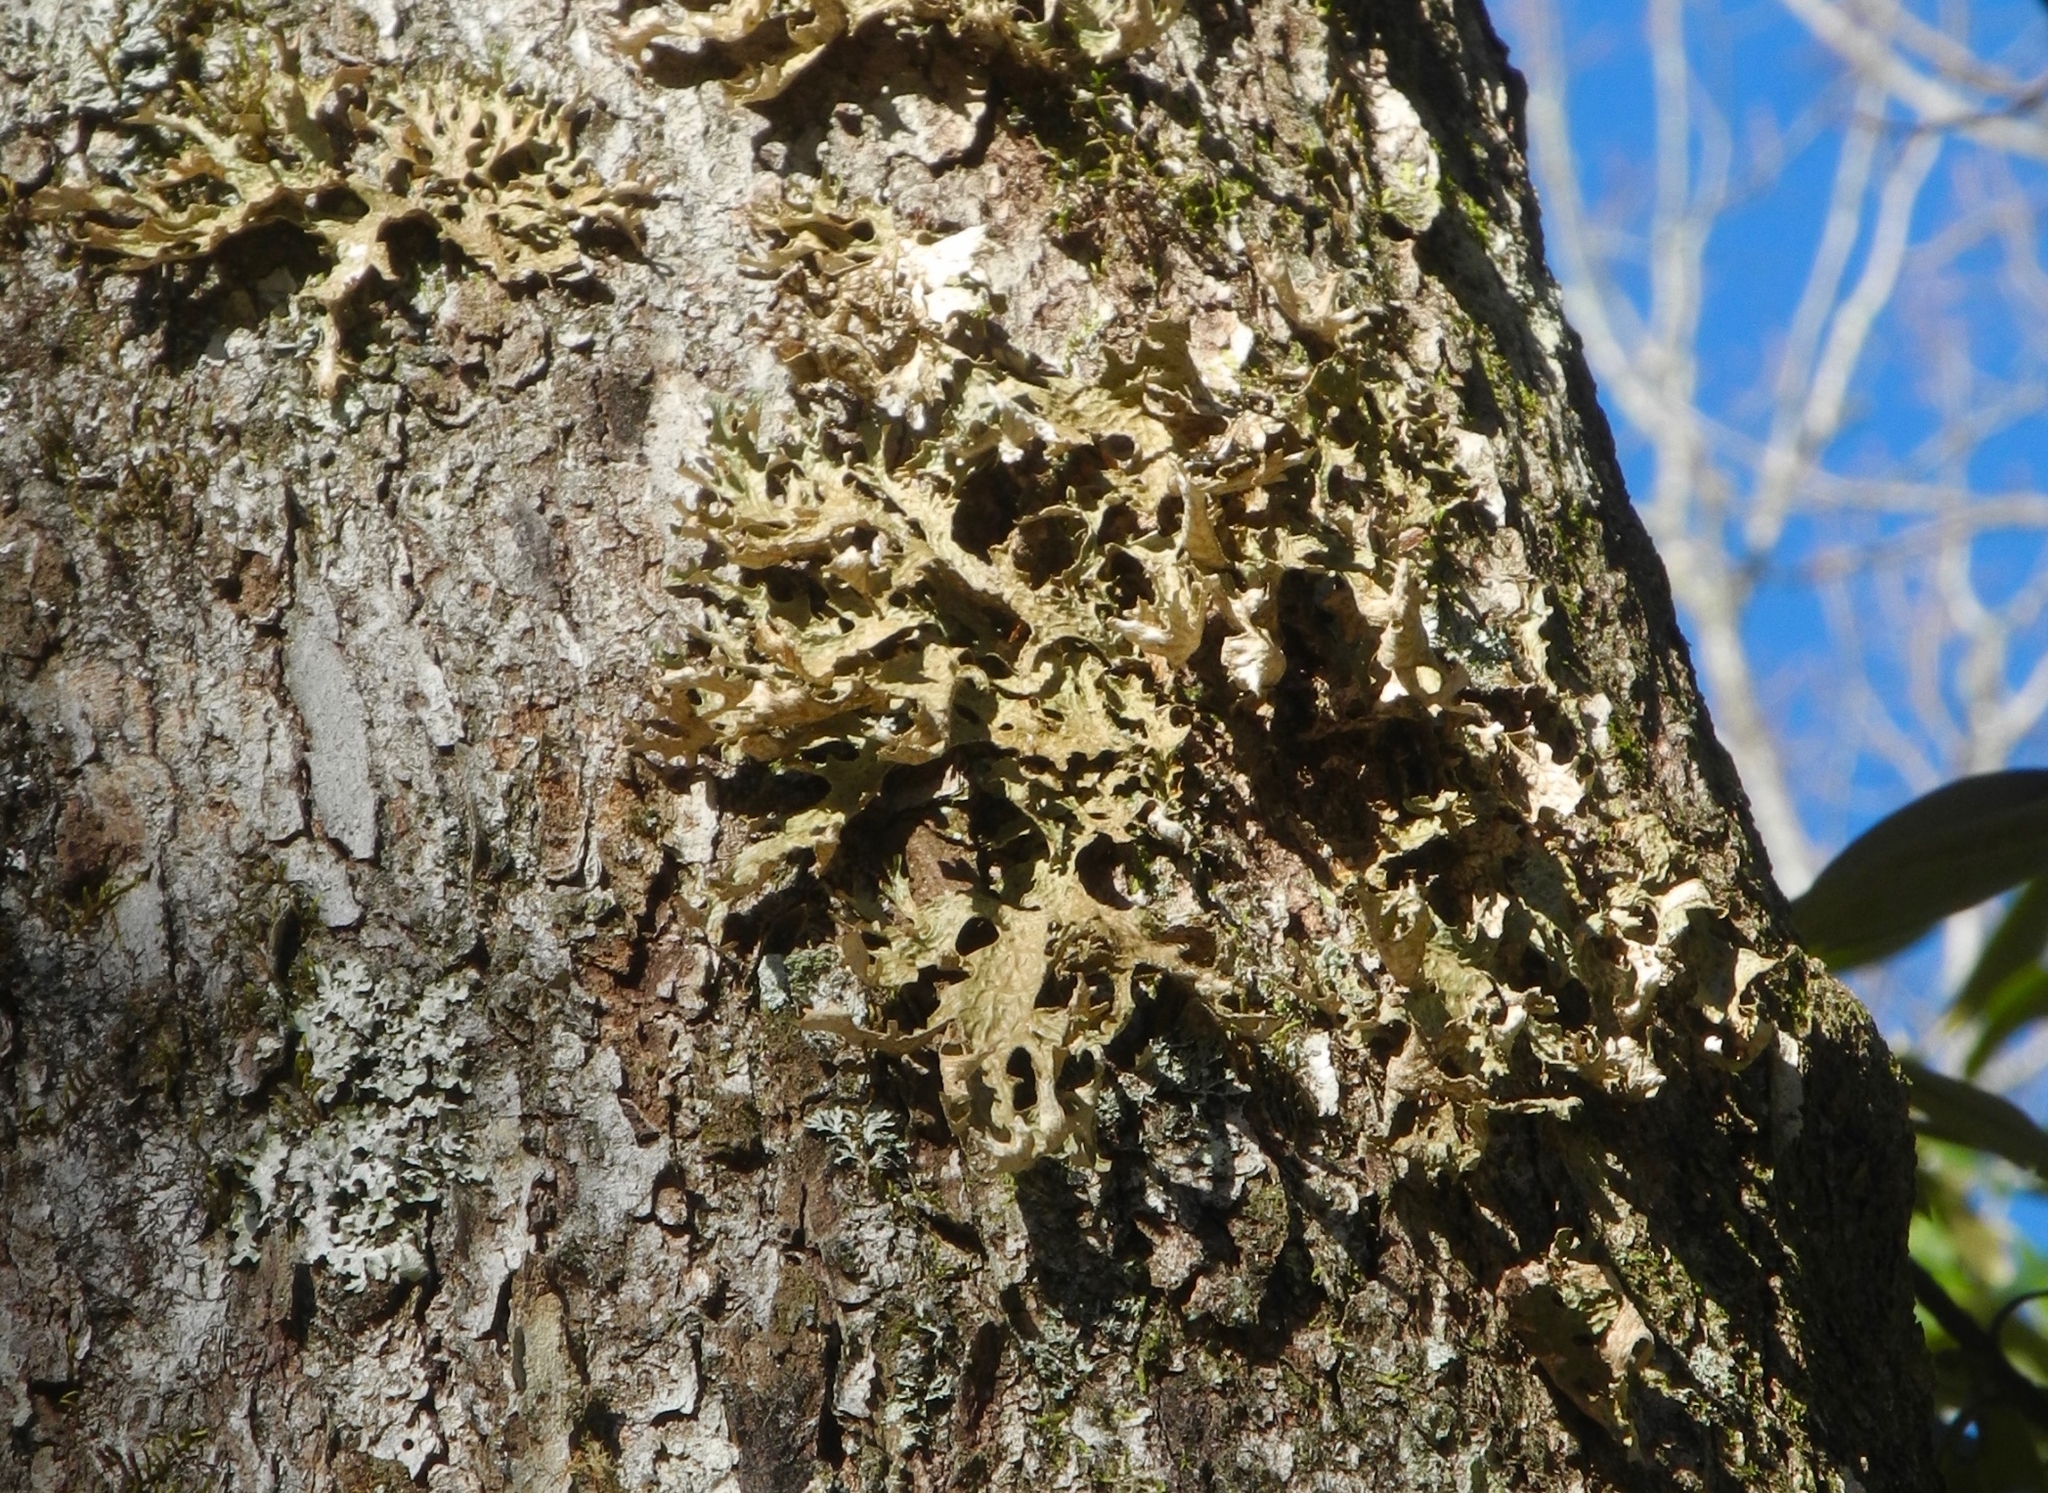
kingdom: Fungi
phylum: Ascomycota
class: Lecanoromycetes
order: Peltigerales
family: Lobariaceae
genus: Lobaria
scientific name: Lobaria pulmonaria
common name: Lungwort
